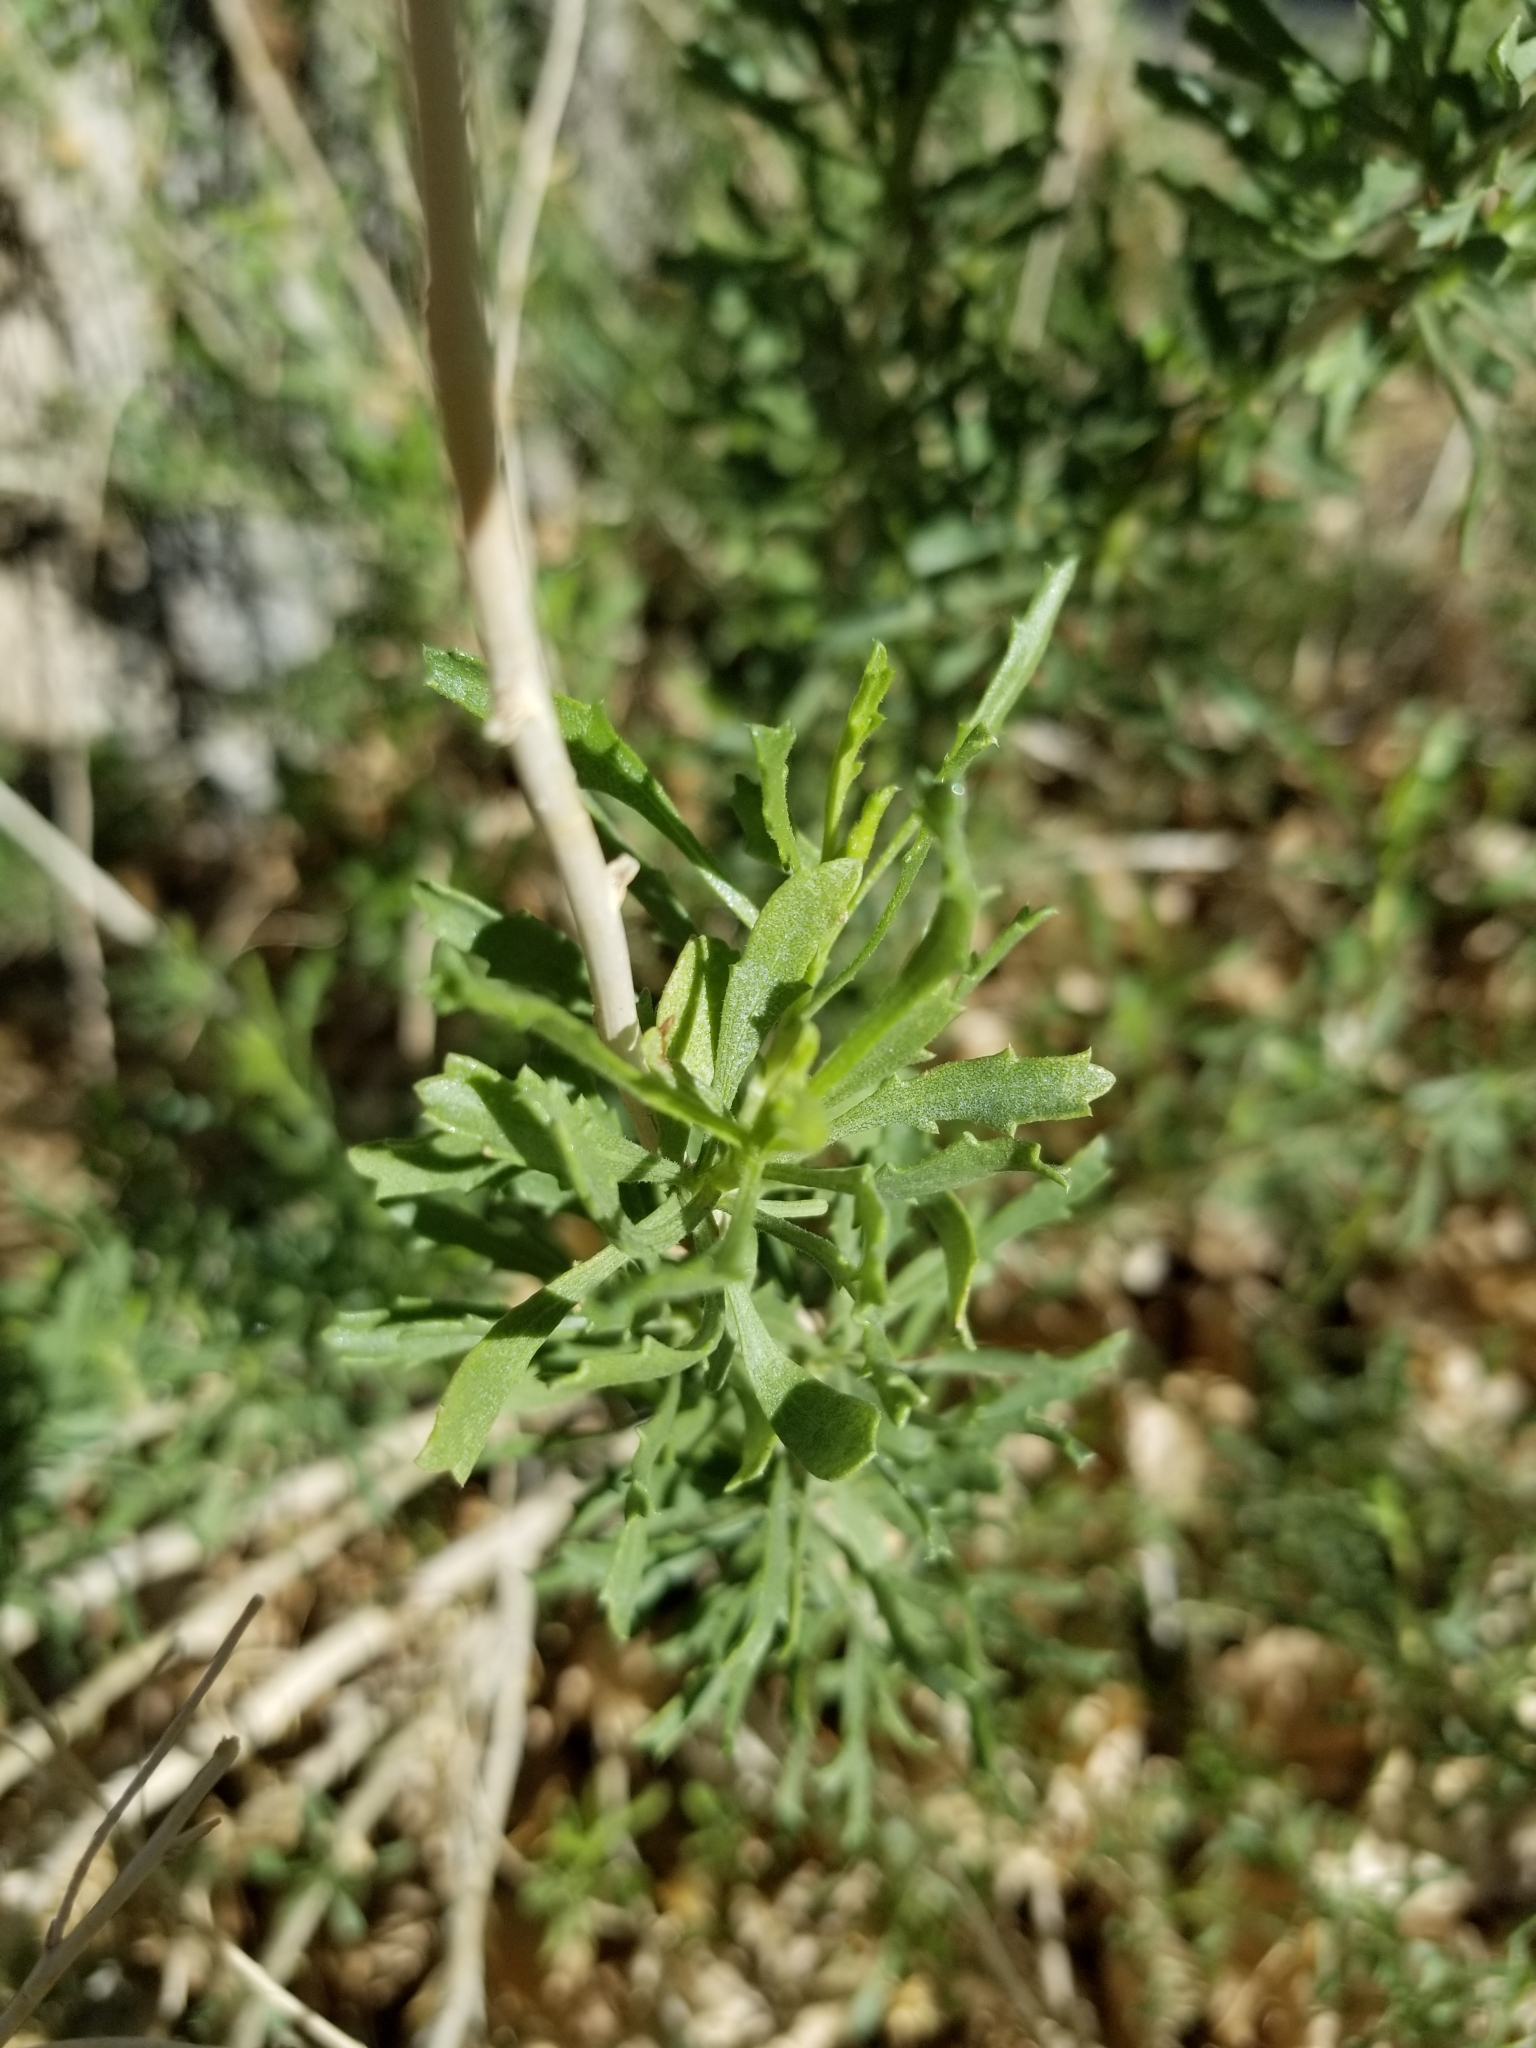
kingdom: Plantae
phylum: Tracheophyta
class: Magnoliopsida
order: Asterales
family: Asteraceae
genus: Isocoma
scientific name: Isocoma acradenia
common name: Alkali jimmyweed
